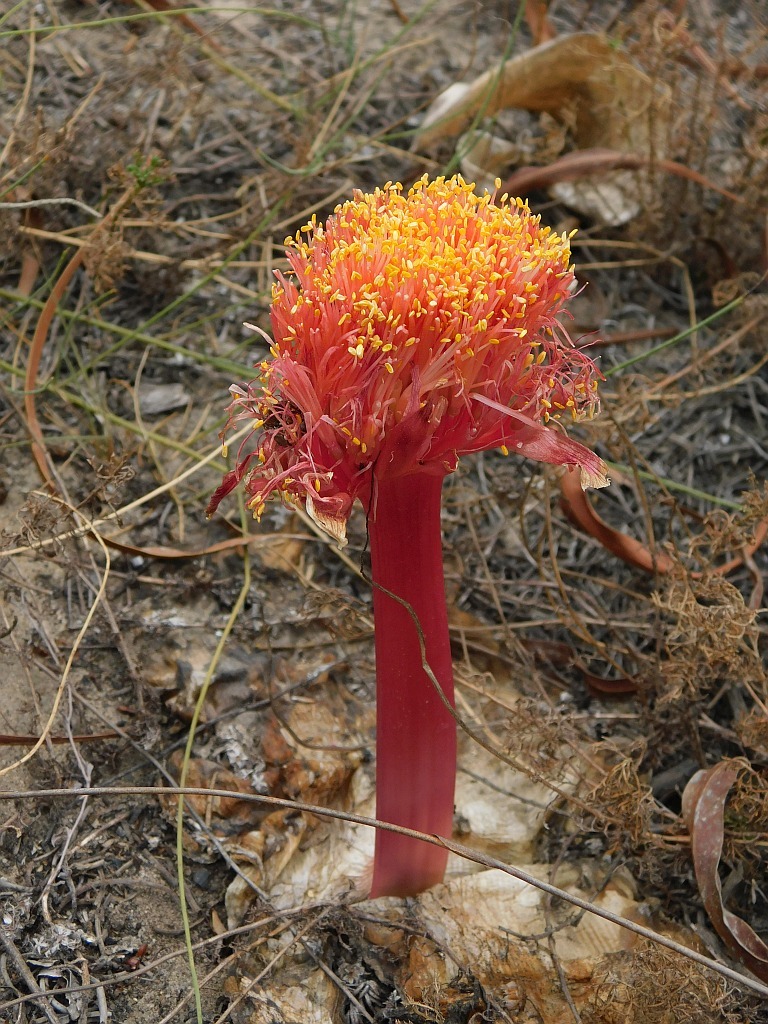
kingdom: Plantae
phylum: Tracheophyta
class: Liliopsida
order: Asparagales
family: Amaryllidaceae
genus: Haemanthus
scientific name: Haemanthus sanguineus
